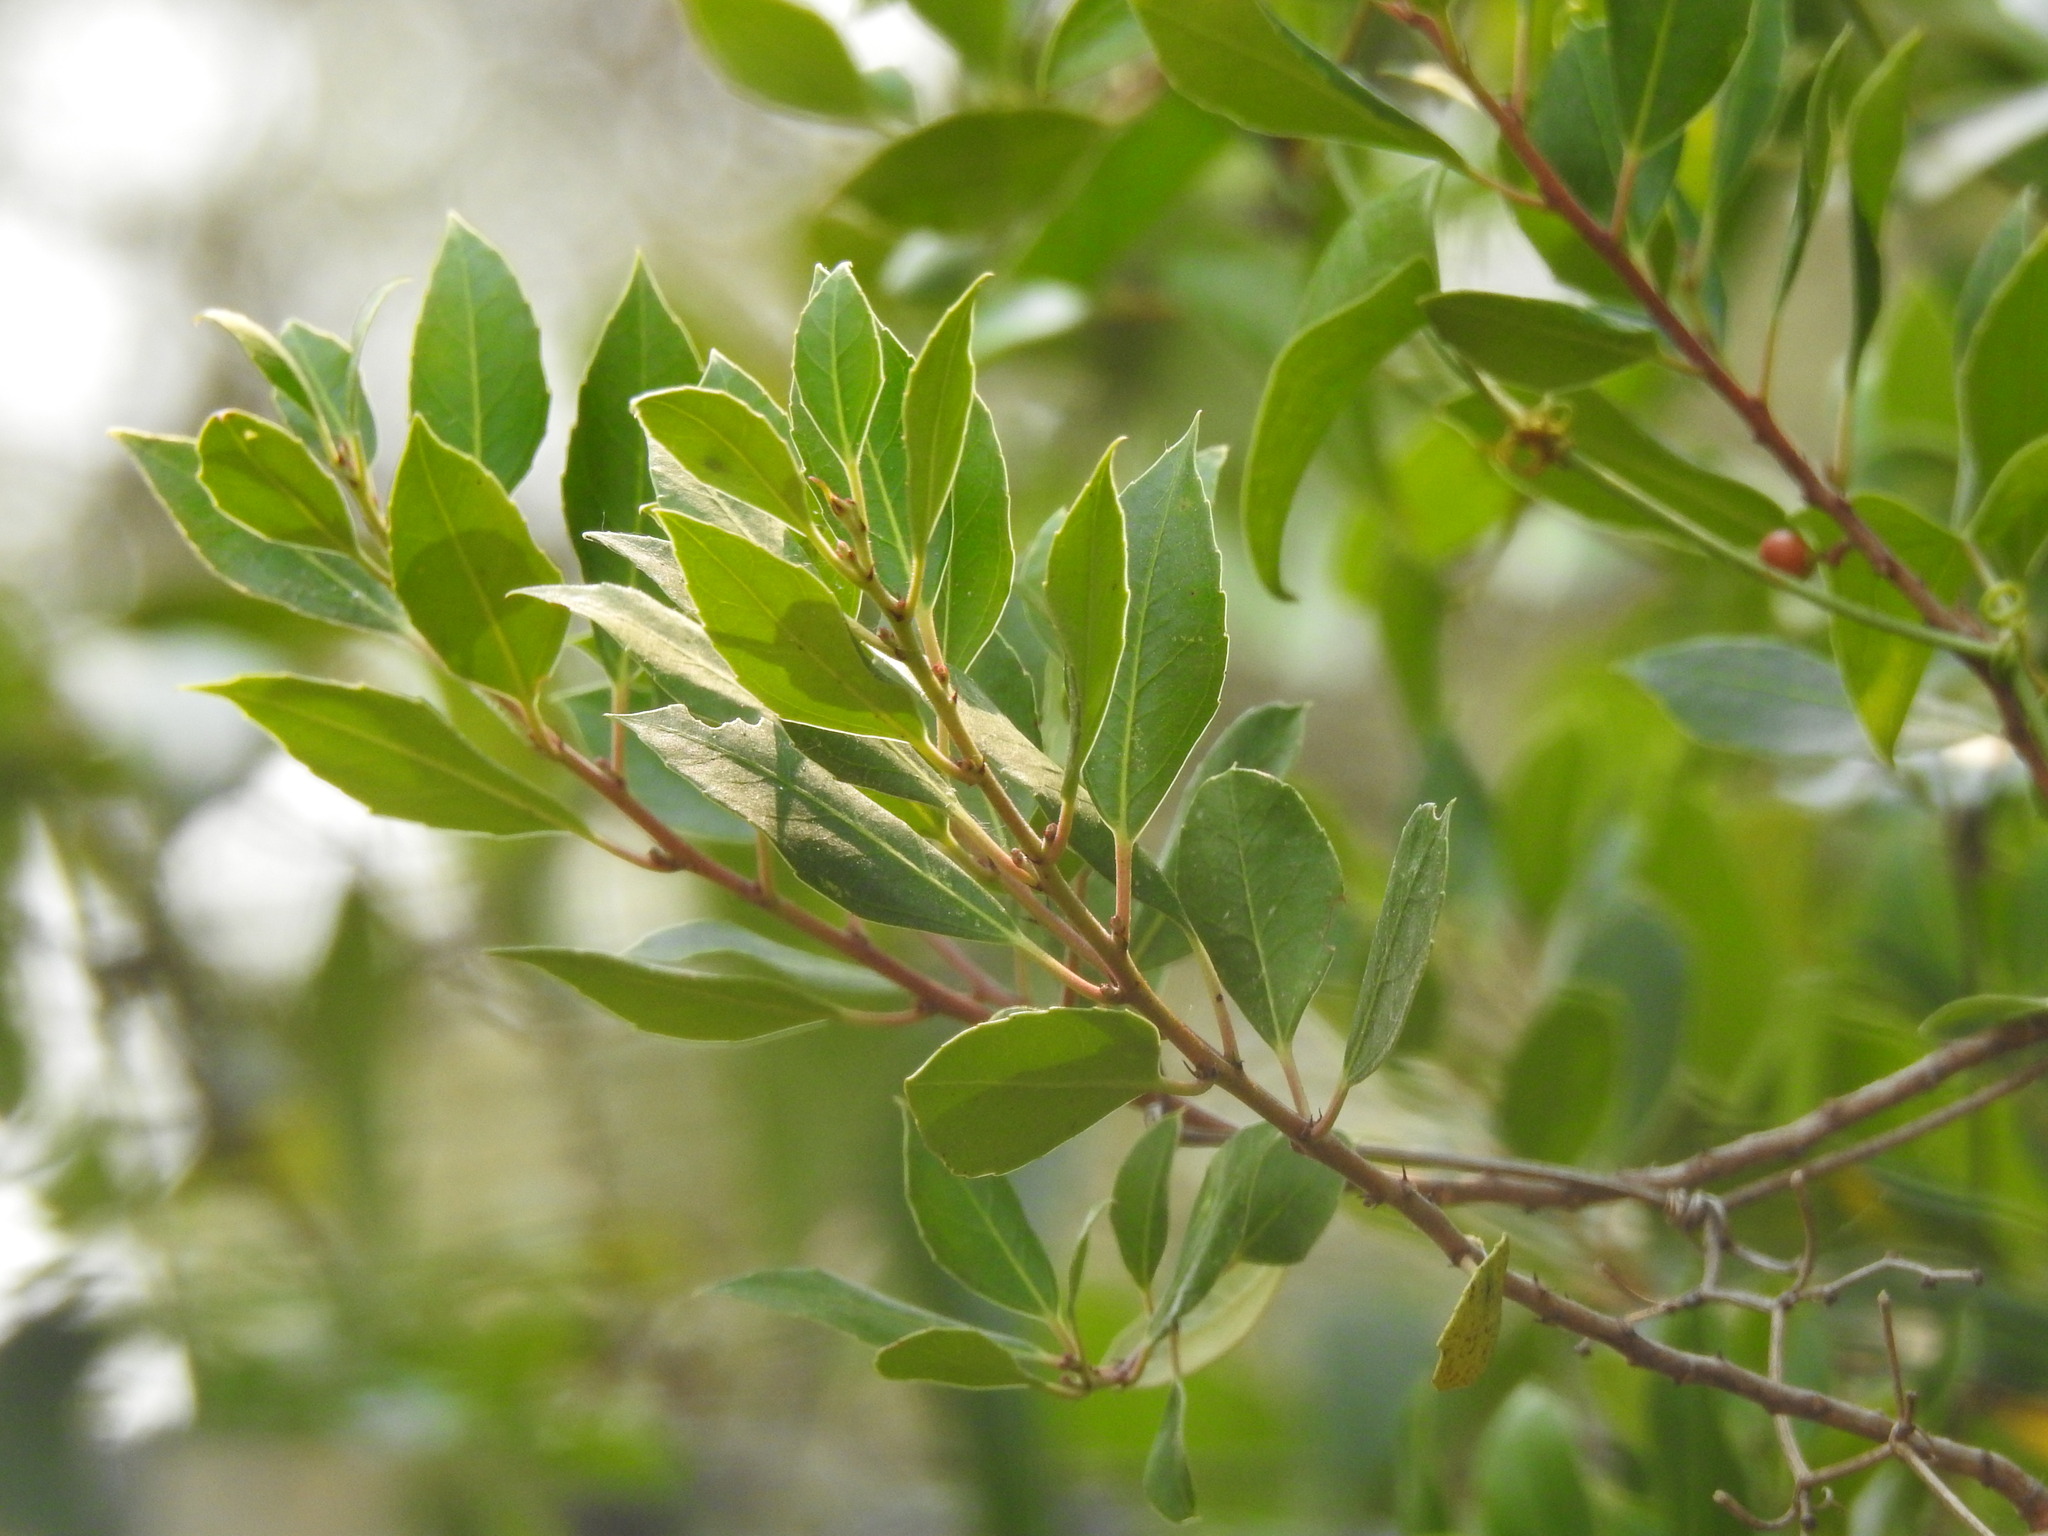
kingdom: Plantae
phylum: Tracheophyta
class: Magnoliopsida
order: Rosales
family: Rhamnaceae
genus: Rhamnus
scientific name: Rhamnus alaternus
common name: Mediterranean buckthorn
